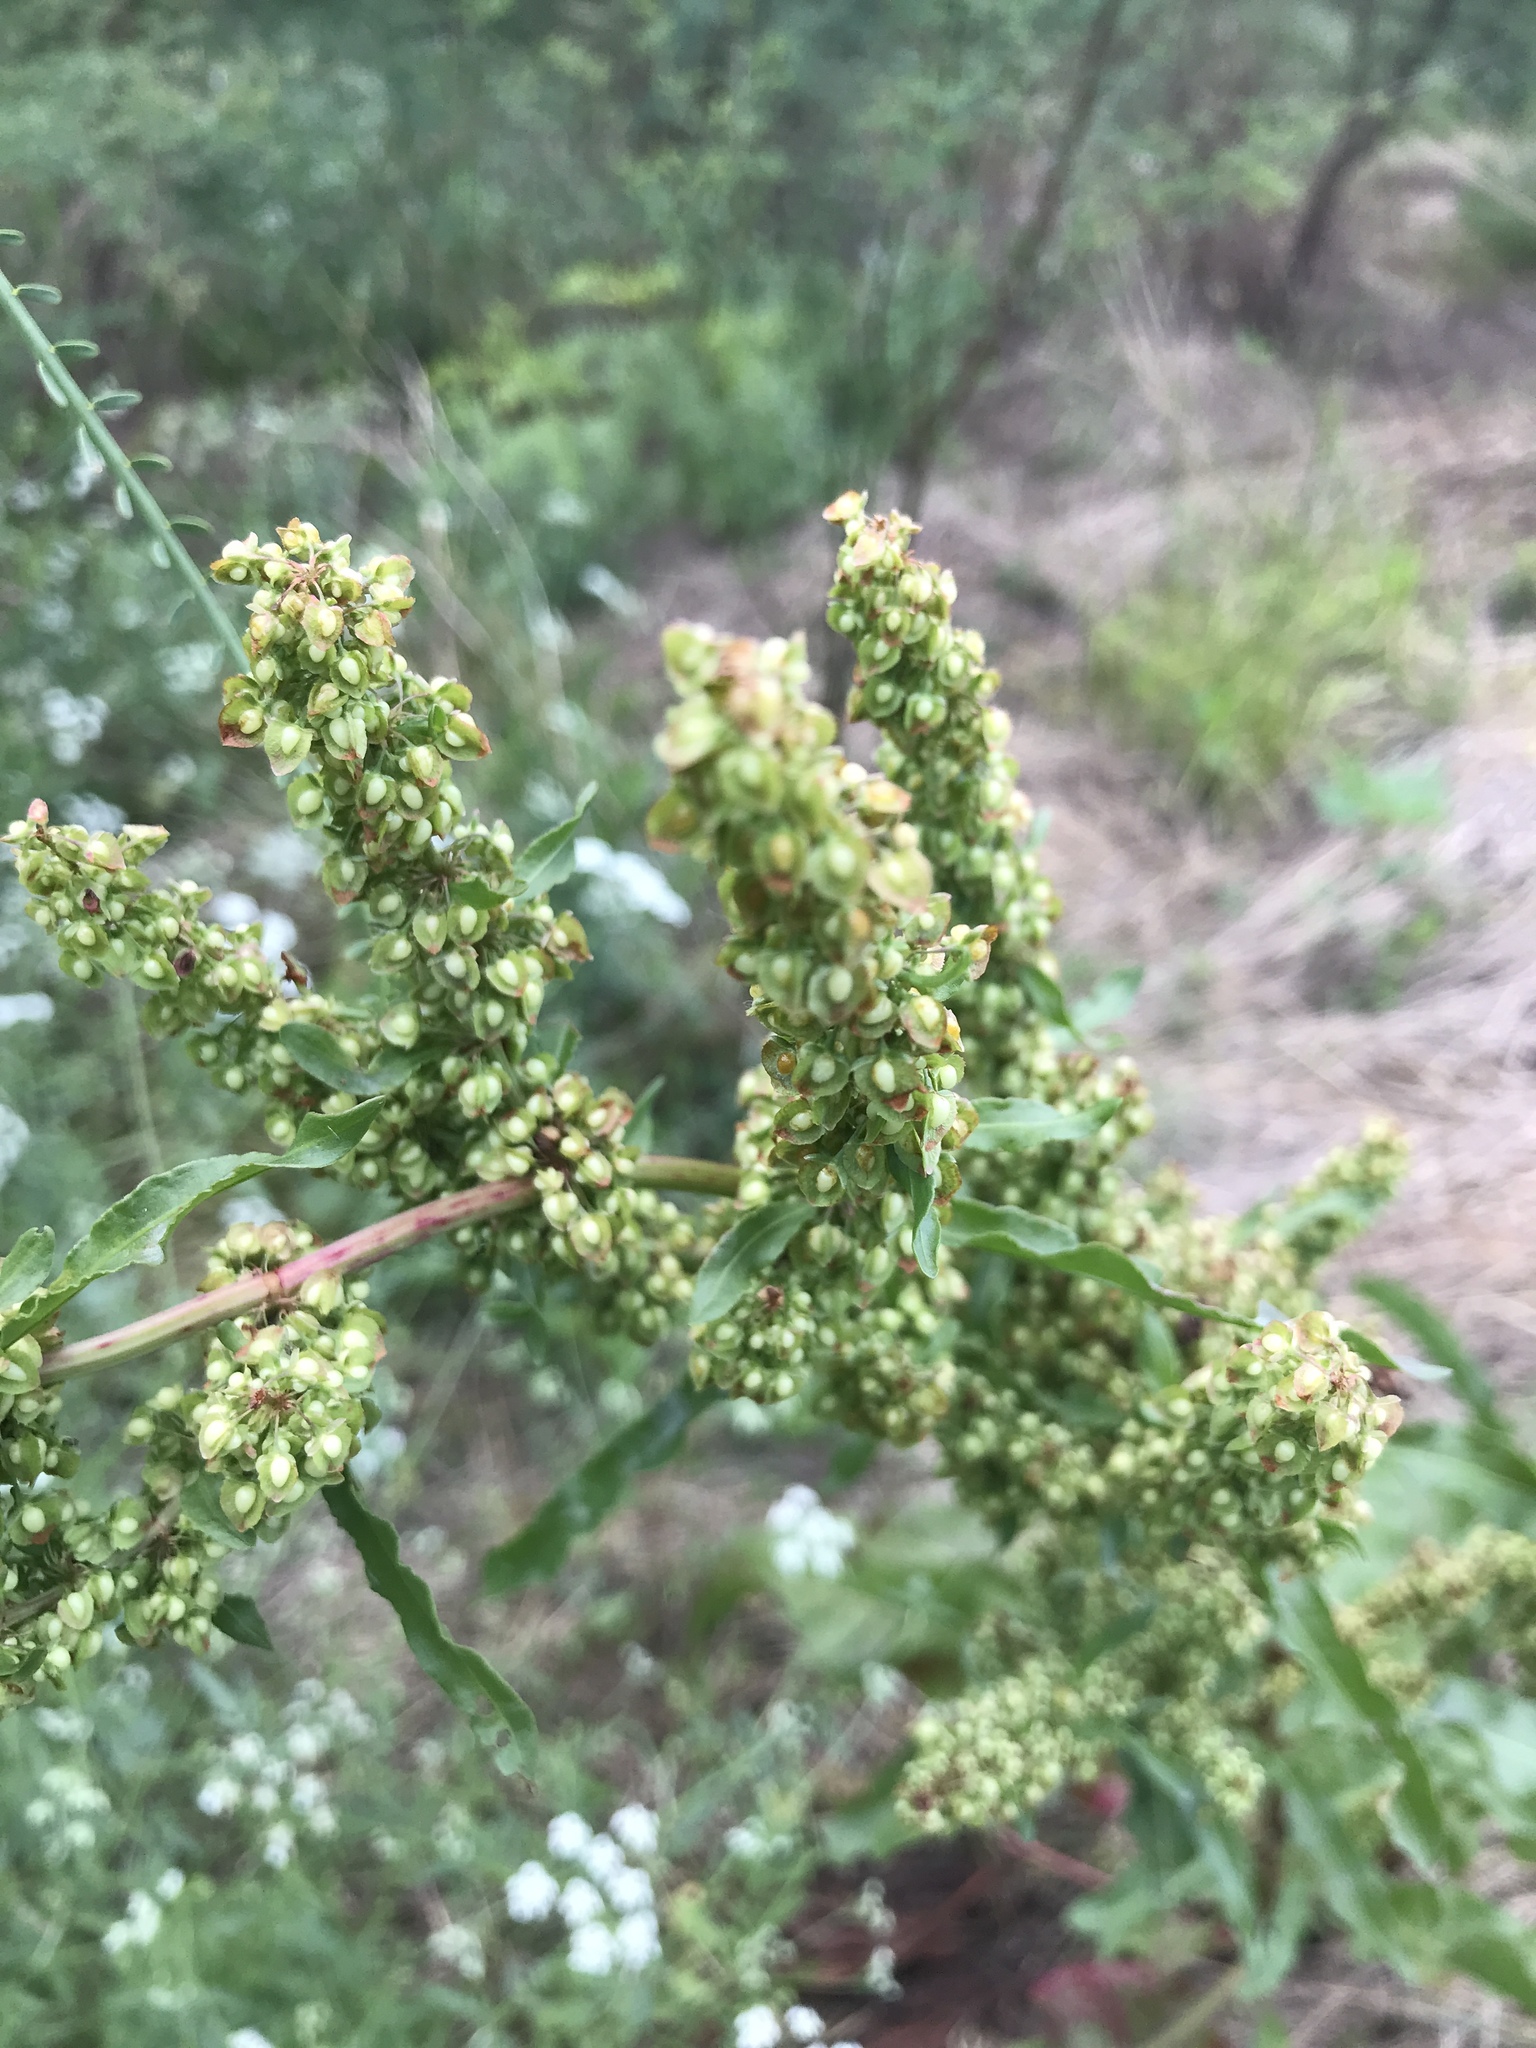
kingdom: Plantae
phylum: Tracheophyta
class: Magnoliopsida
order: Caryophyllales
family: Polygonaceae
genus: Rumex
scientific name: Rumex crispus
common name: Curled dock
